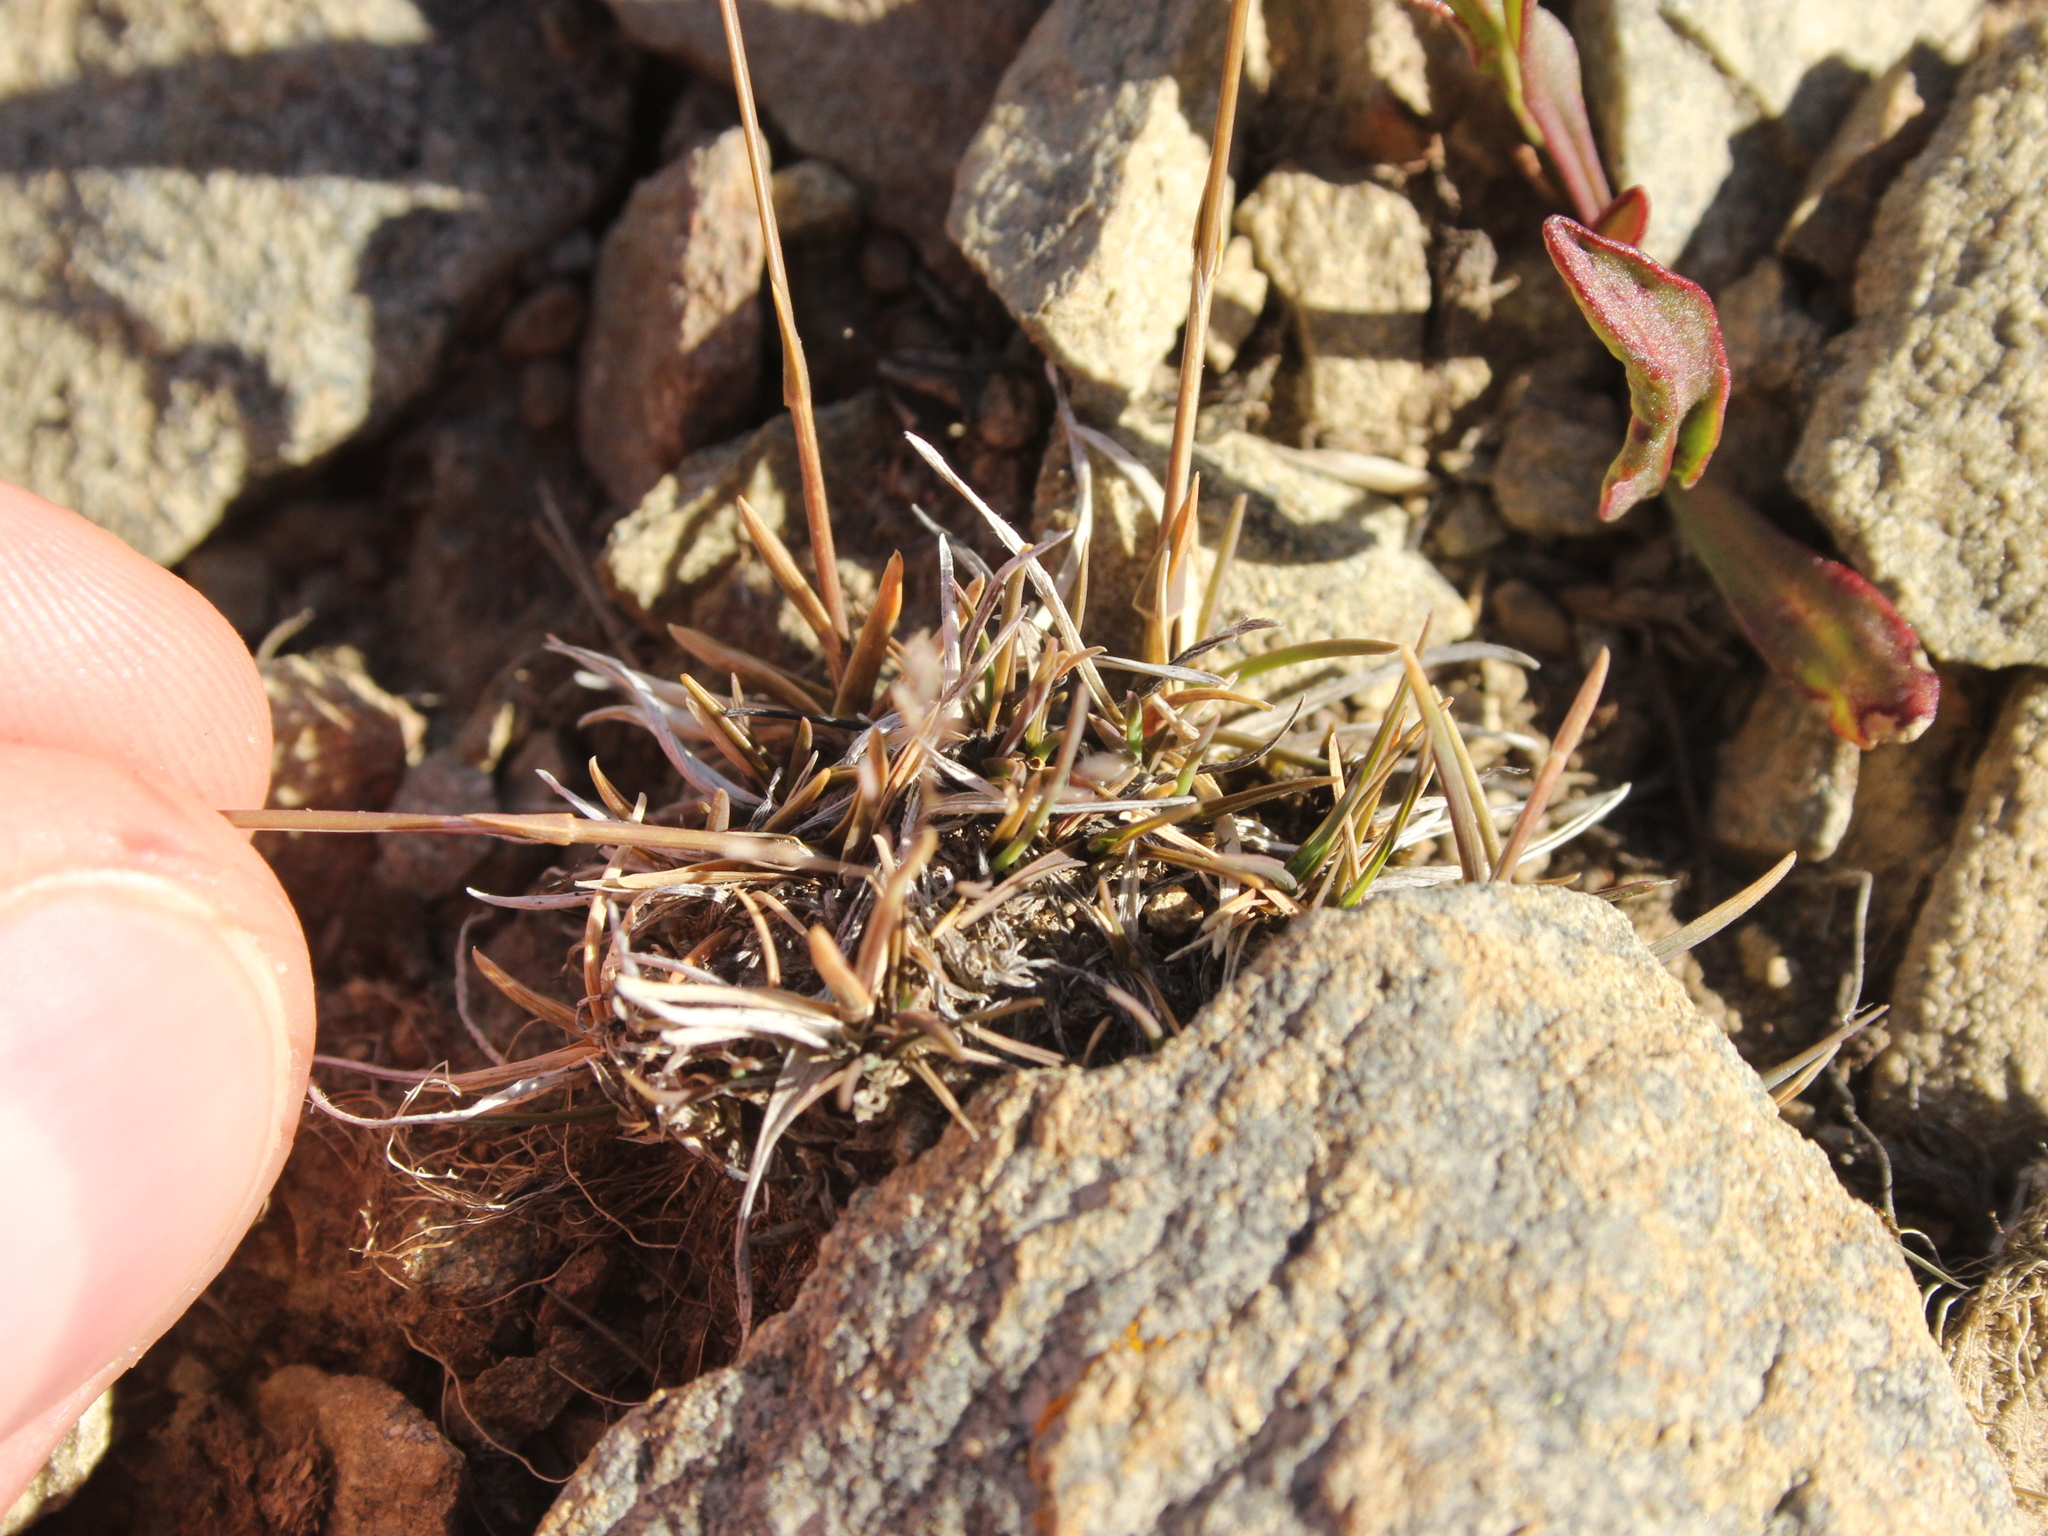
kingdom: Plantae
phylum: Tracheophyta
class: Liliopsida
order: Poales
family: Poaceae
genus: Poa
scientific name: Poa lindsayi
